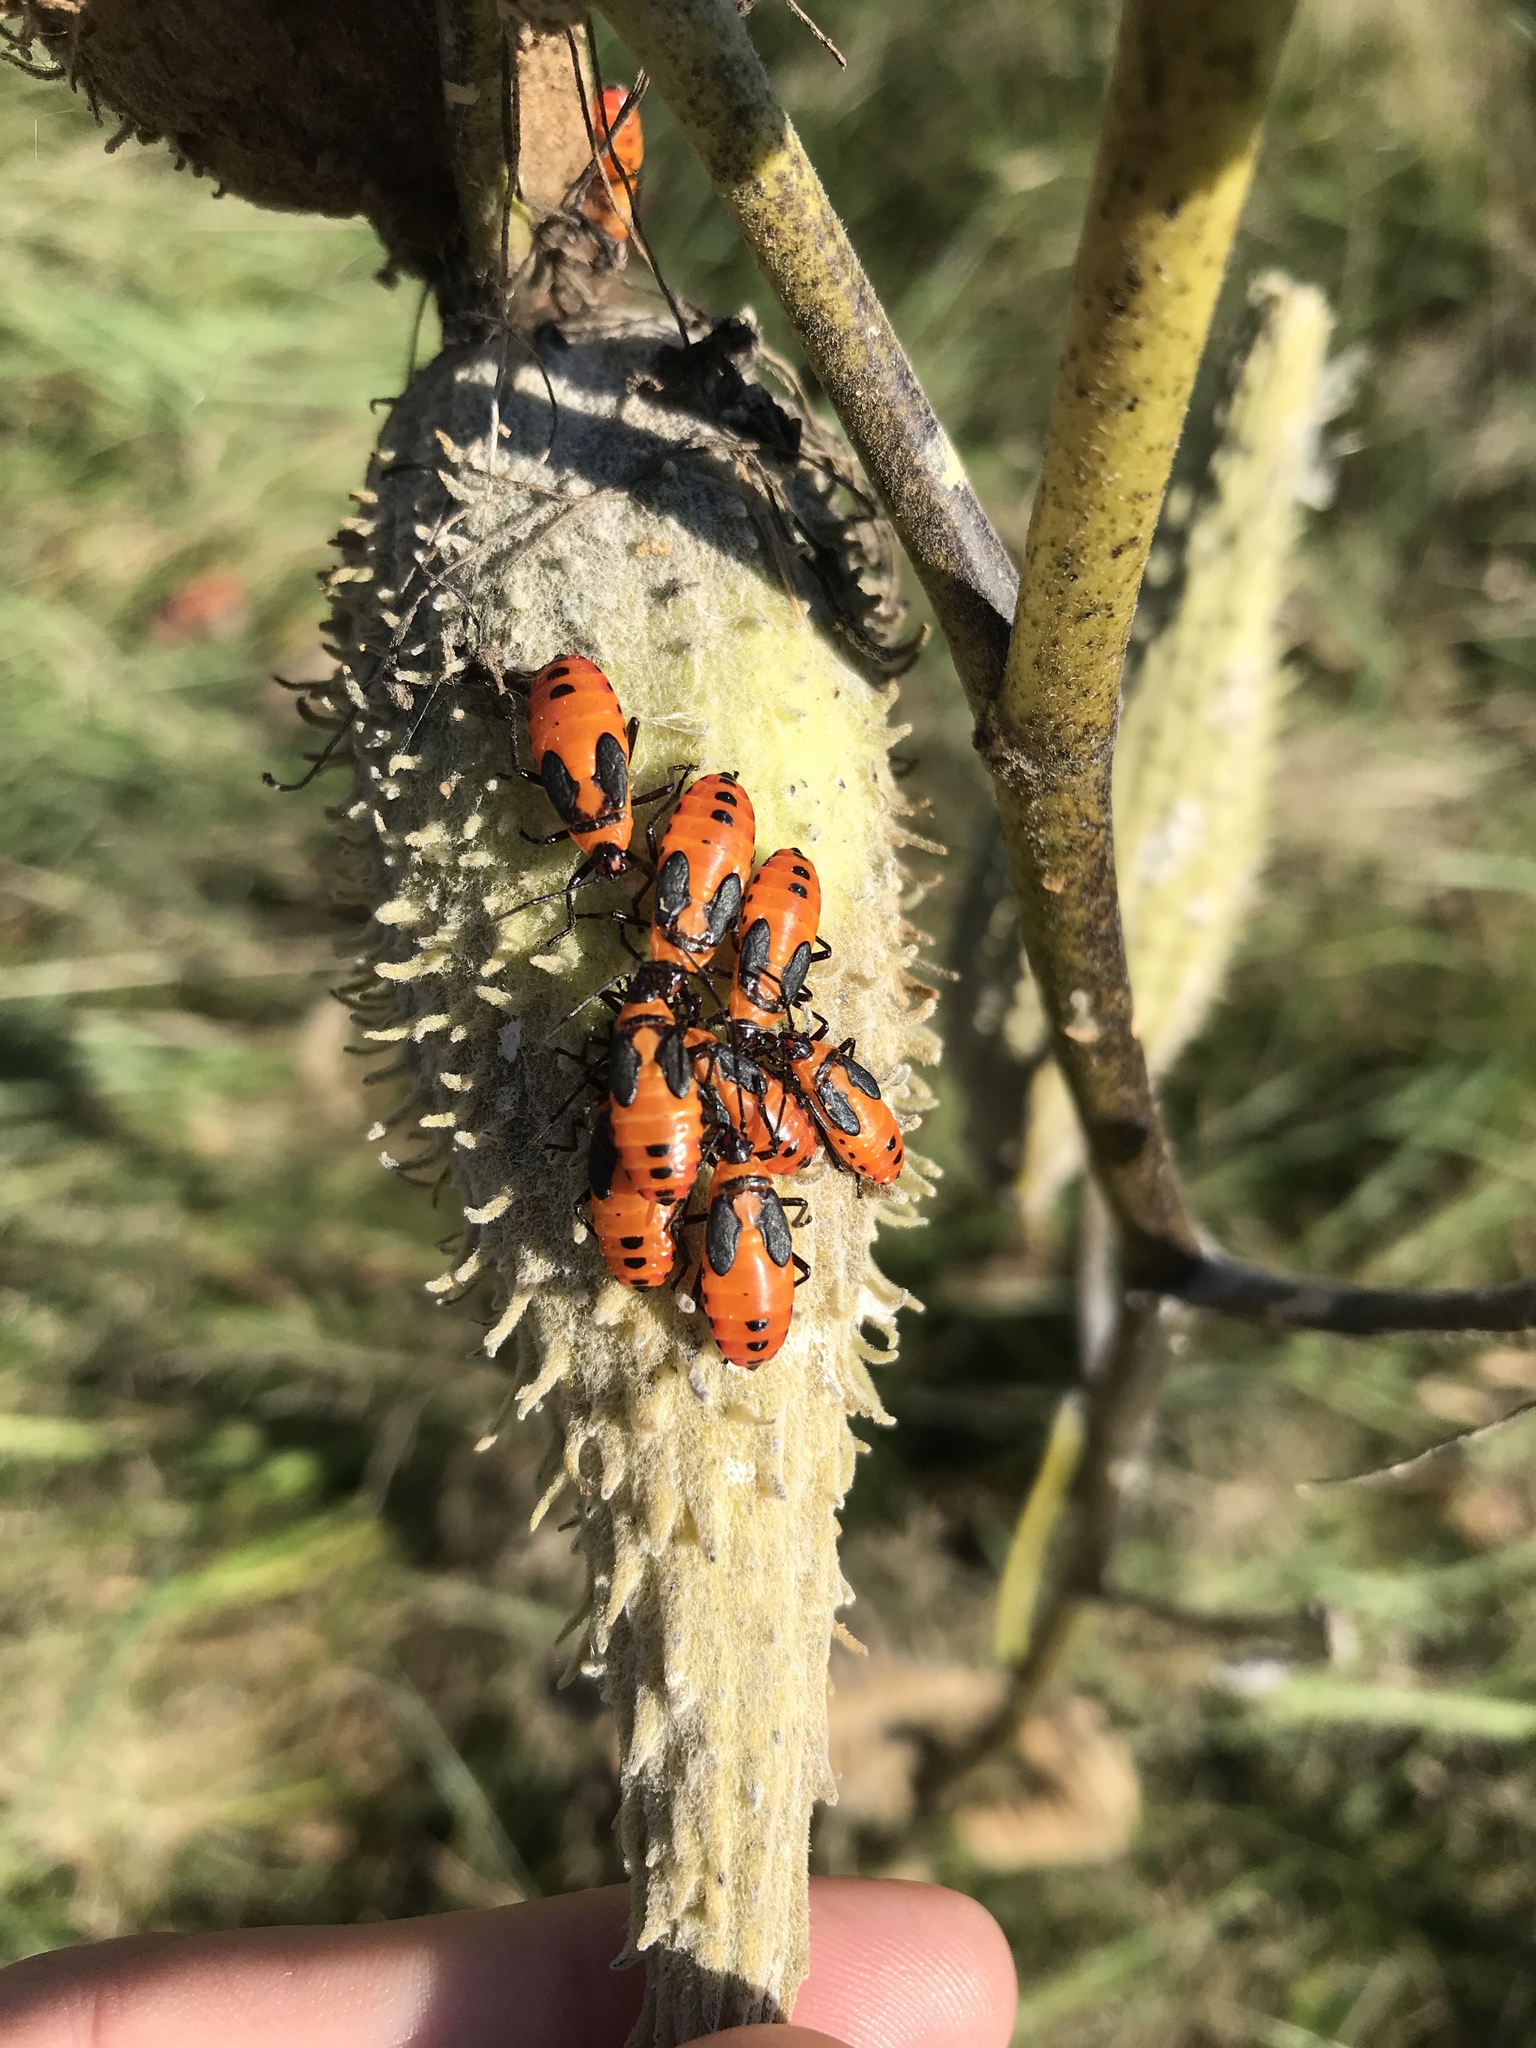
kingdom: Animalia
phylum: Arthropoda
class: Insecta
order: Hemiptera
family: Lygaeidae
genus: Oncopeltus
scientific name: Oncopeltus fasciatus
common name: Large milkweed bug
